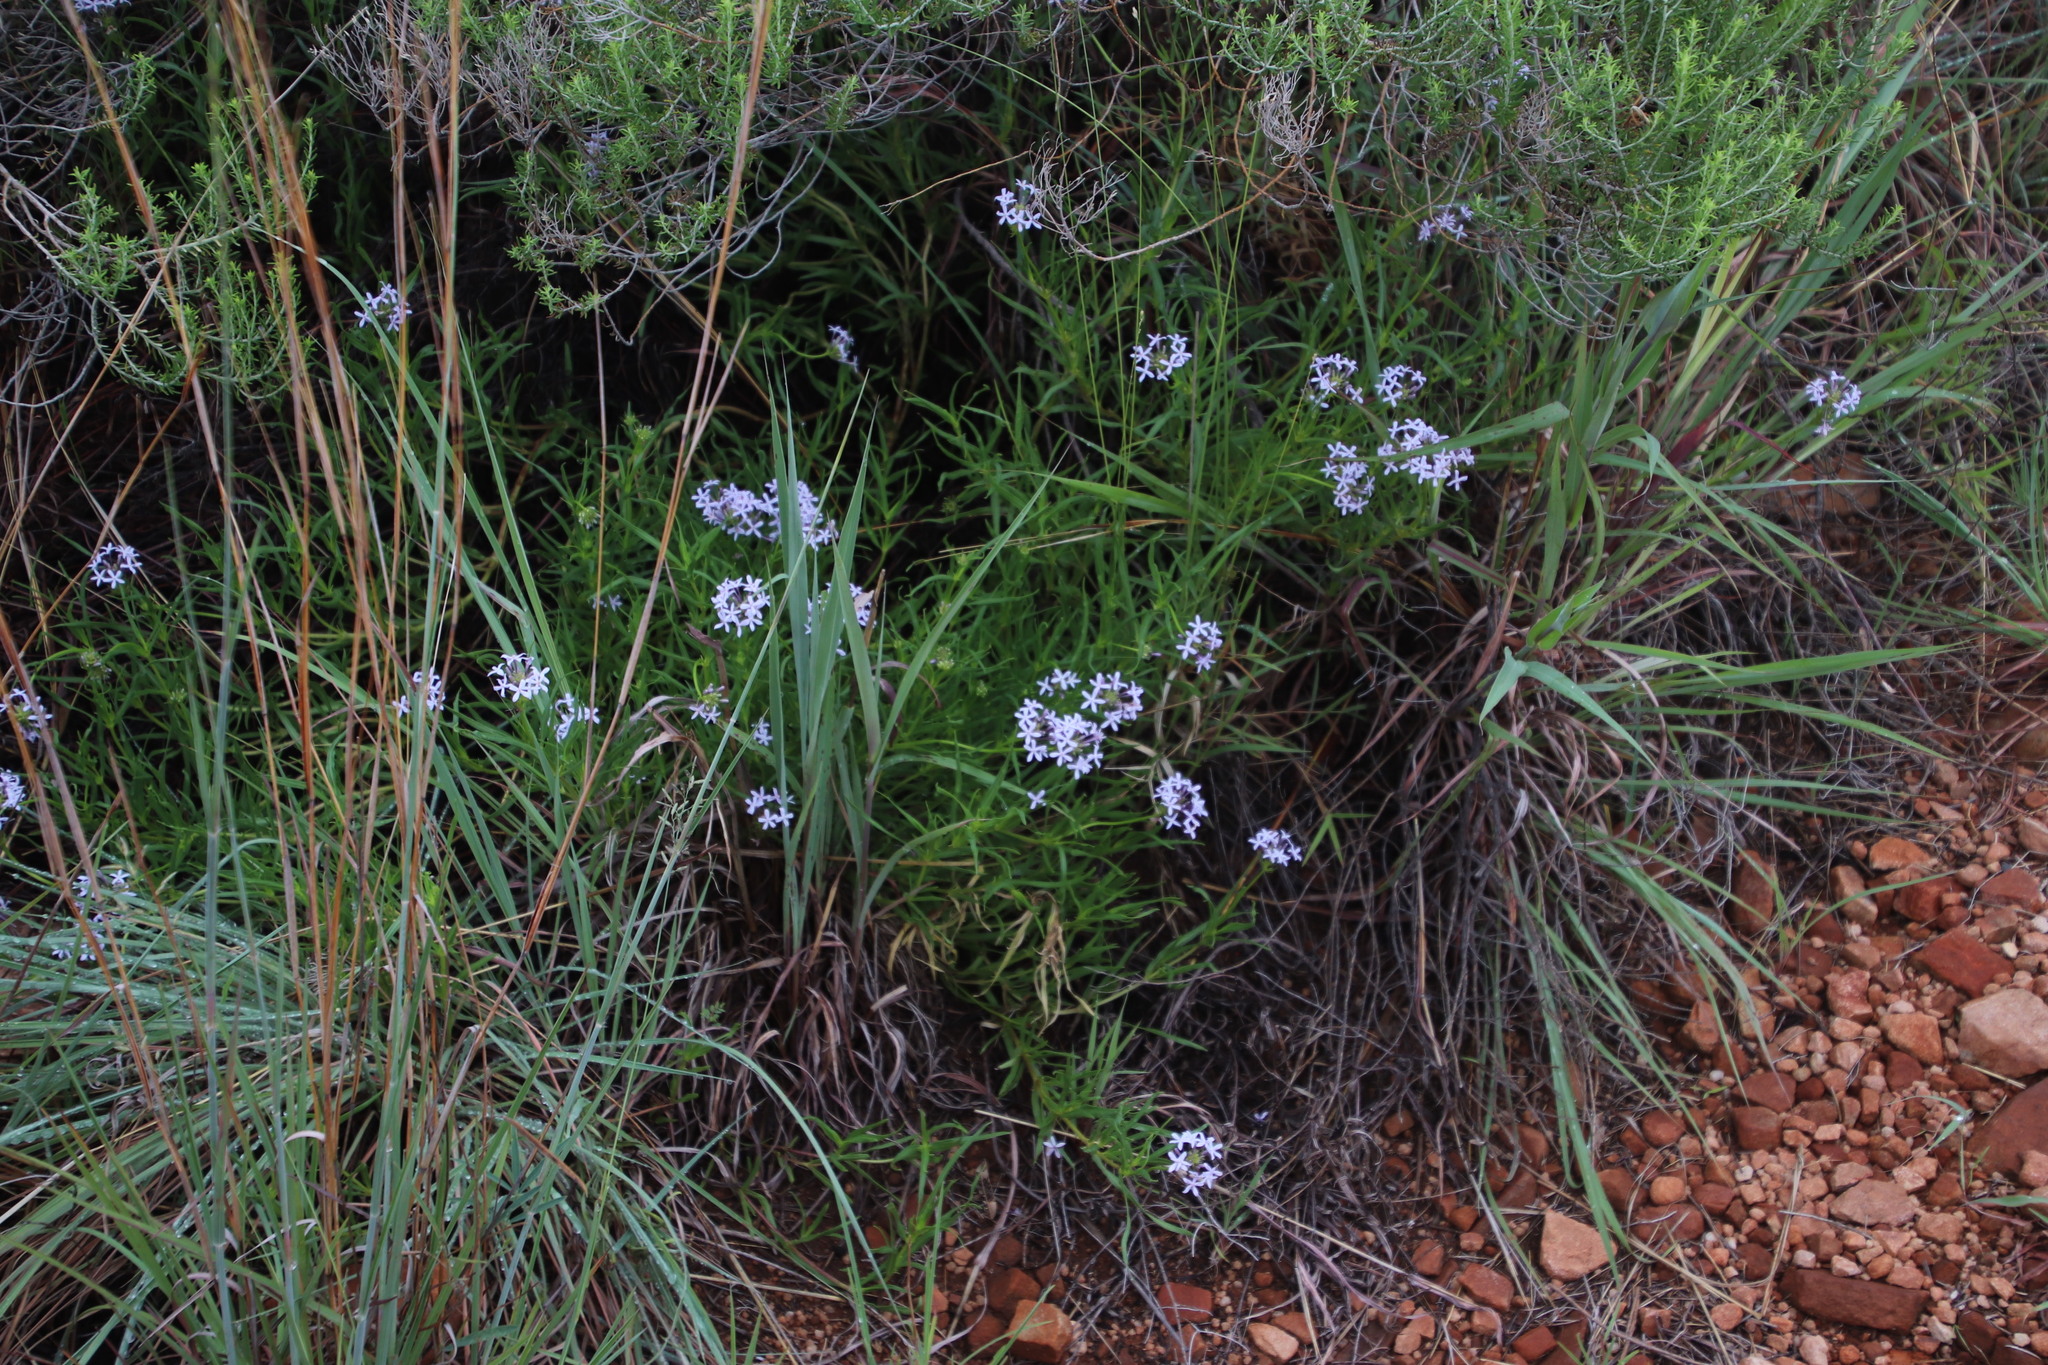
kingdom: Plantae
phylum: Tracheophyta
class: Magnoliopsida
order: Gentianales
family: Rubiaceae
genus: Pentanisia
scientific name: Pentanisia angustifolia
